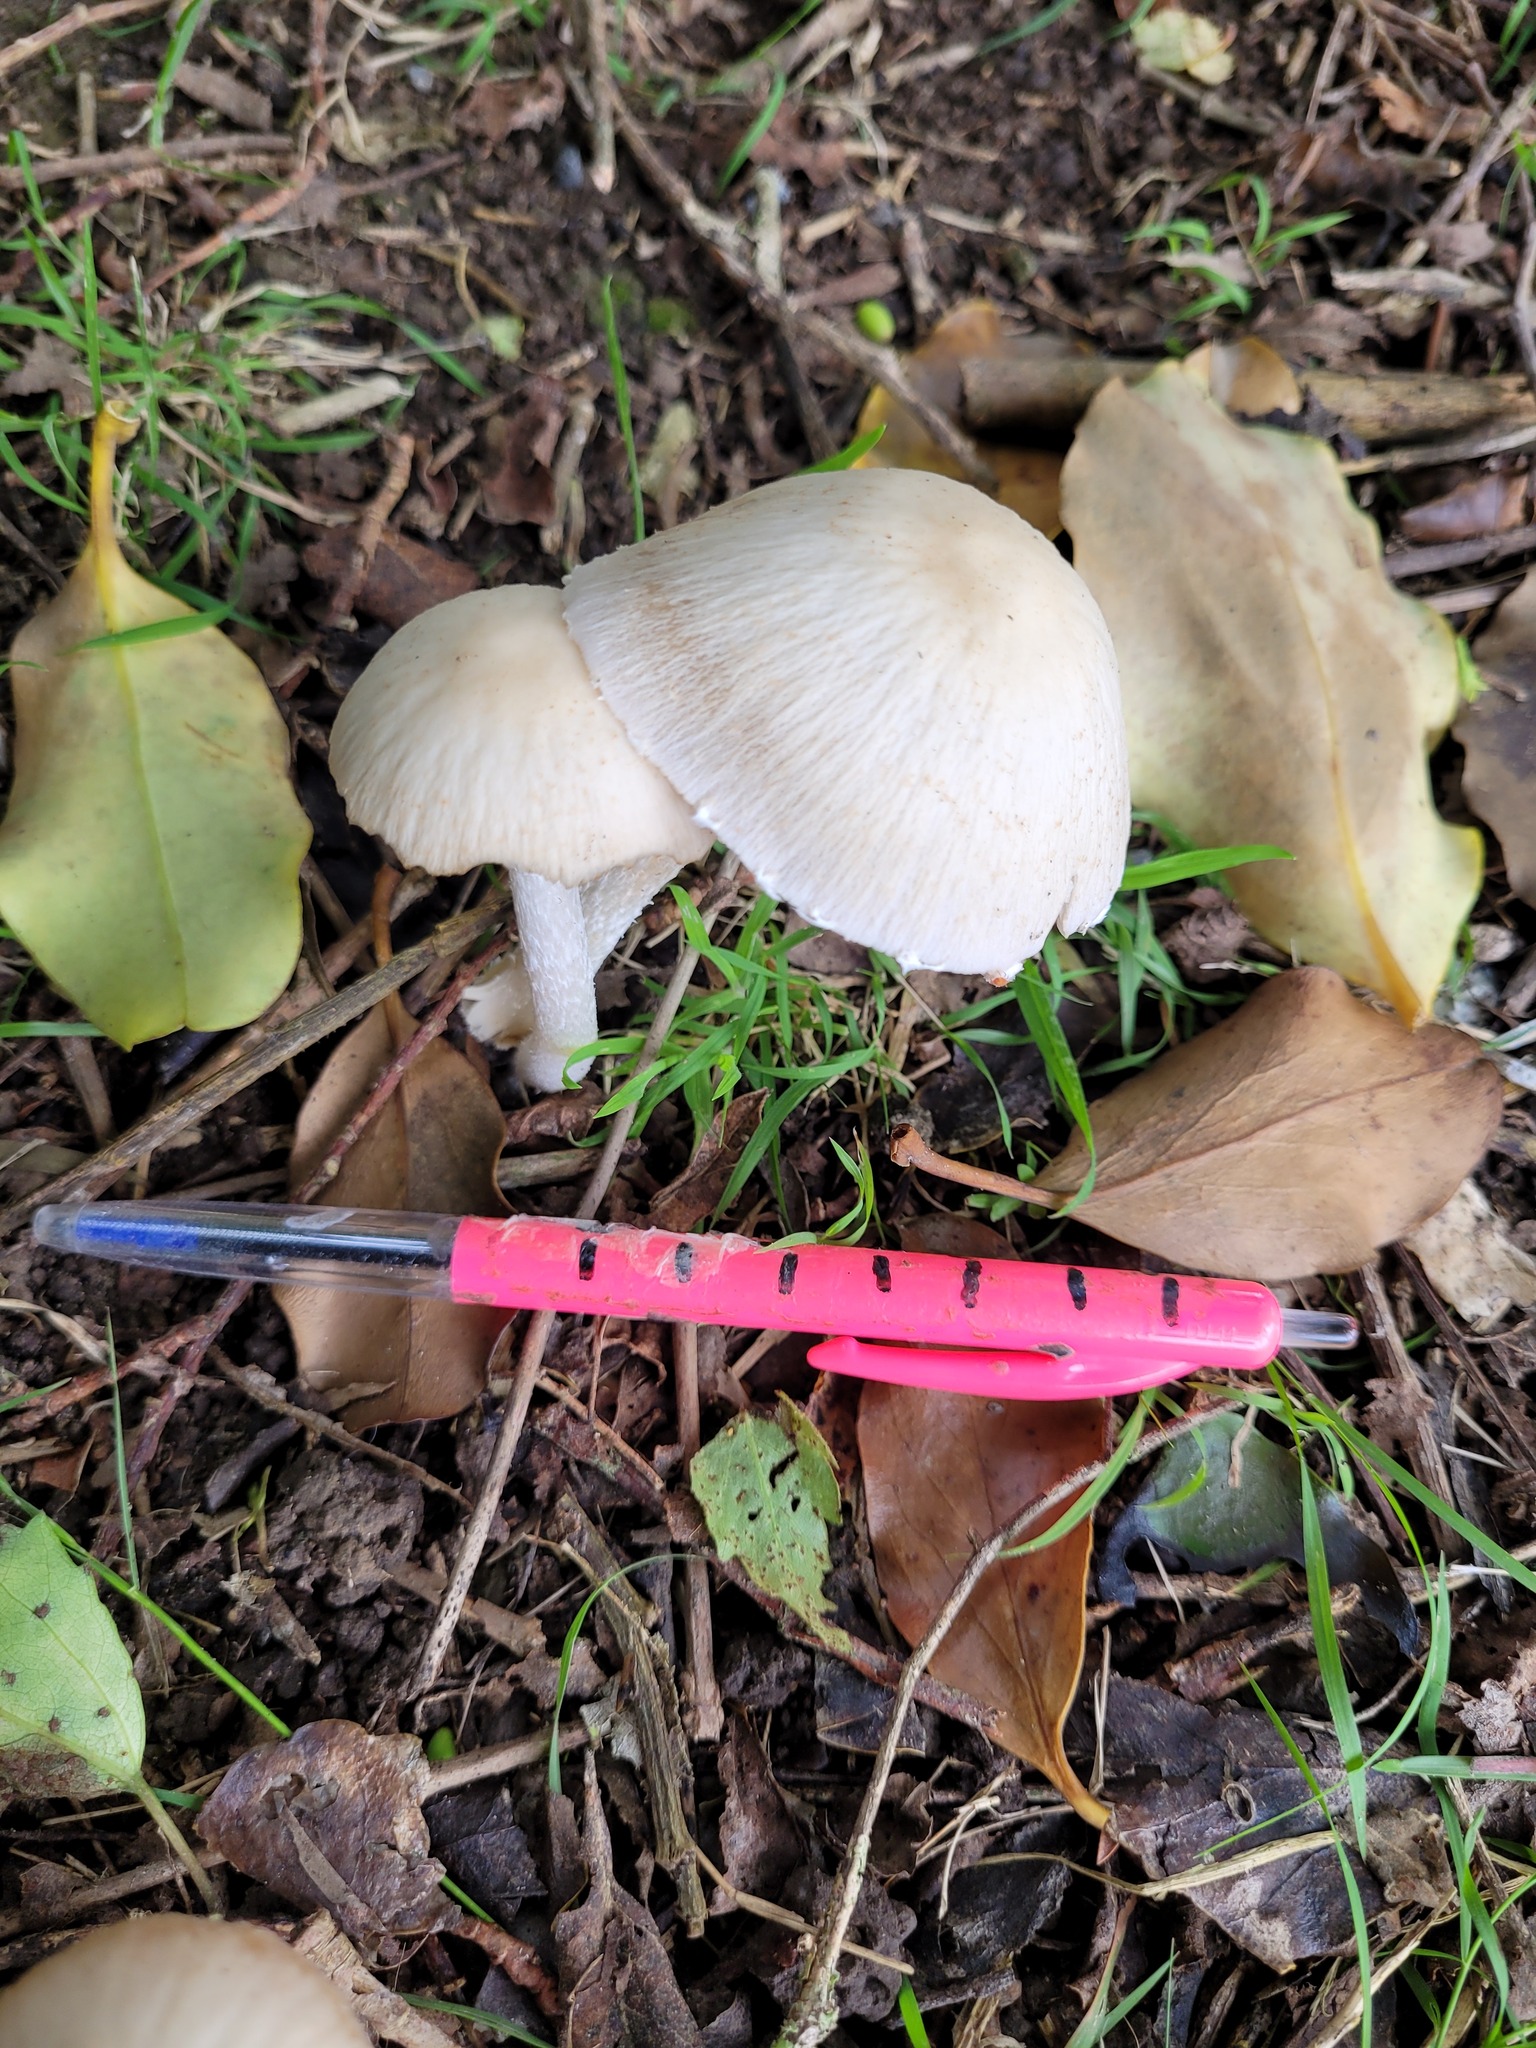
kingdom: Fungi
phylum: Basidiomycota
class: Agaricomycetes
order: Agaricales
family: Psathyrellaceae
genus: Candolleomyces
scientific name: Candolleomyces candolleanus
